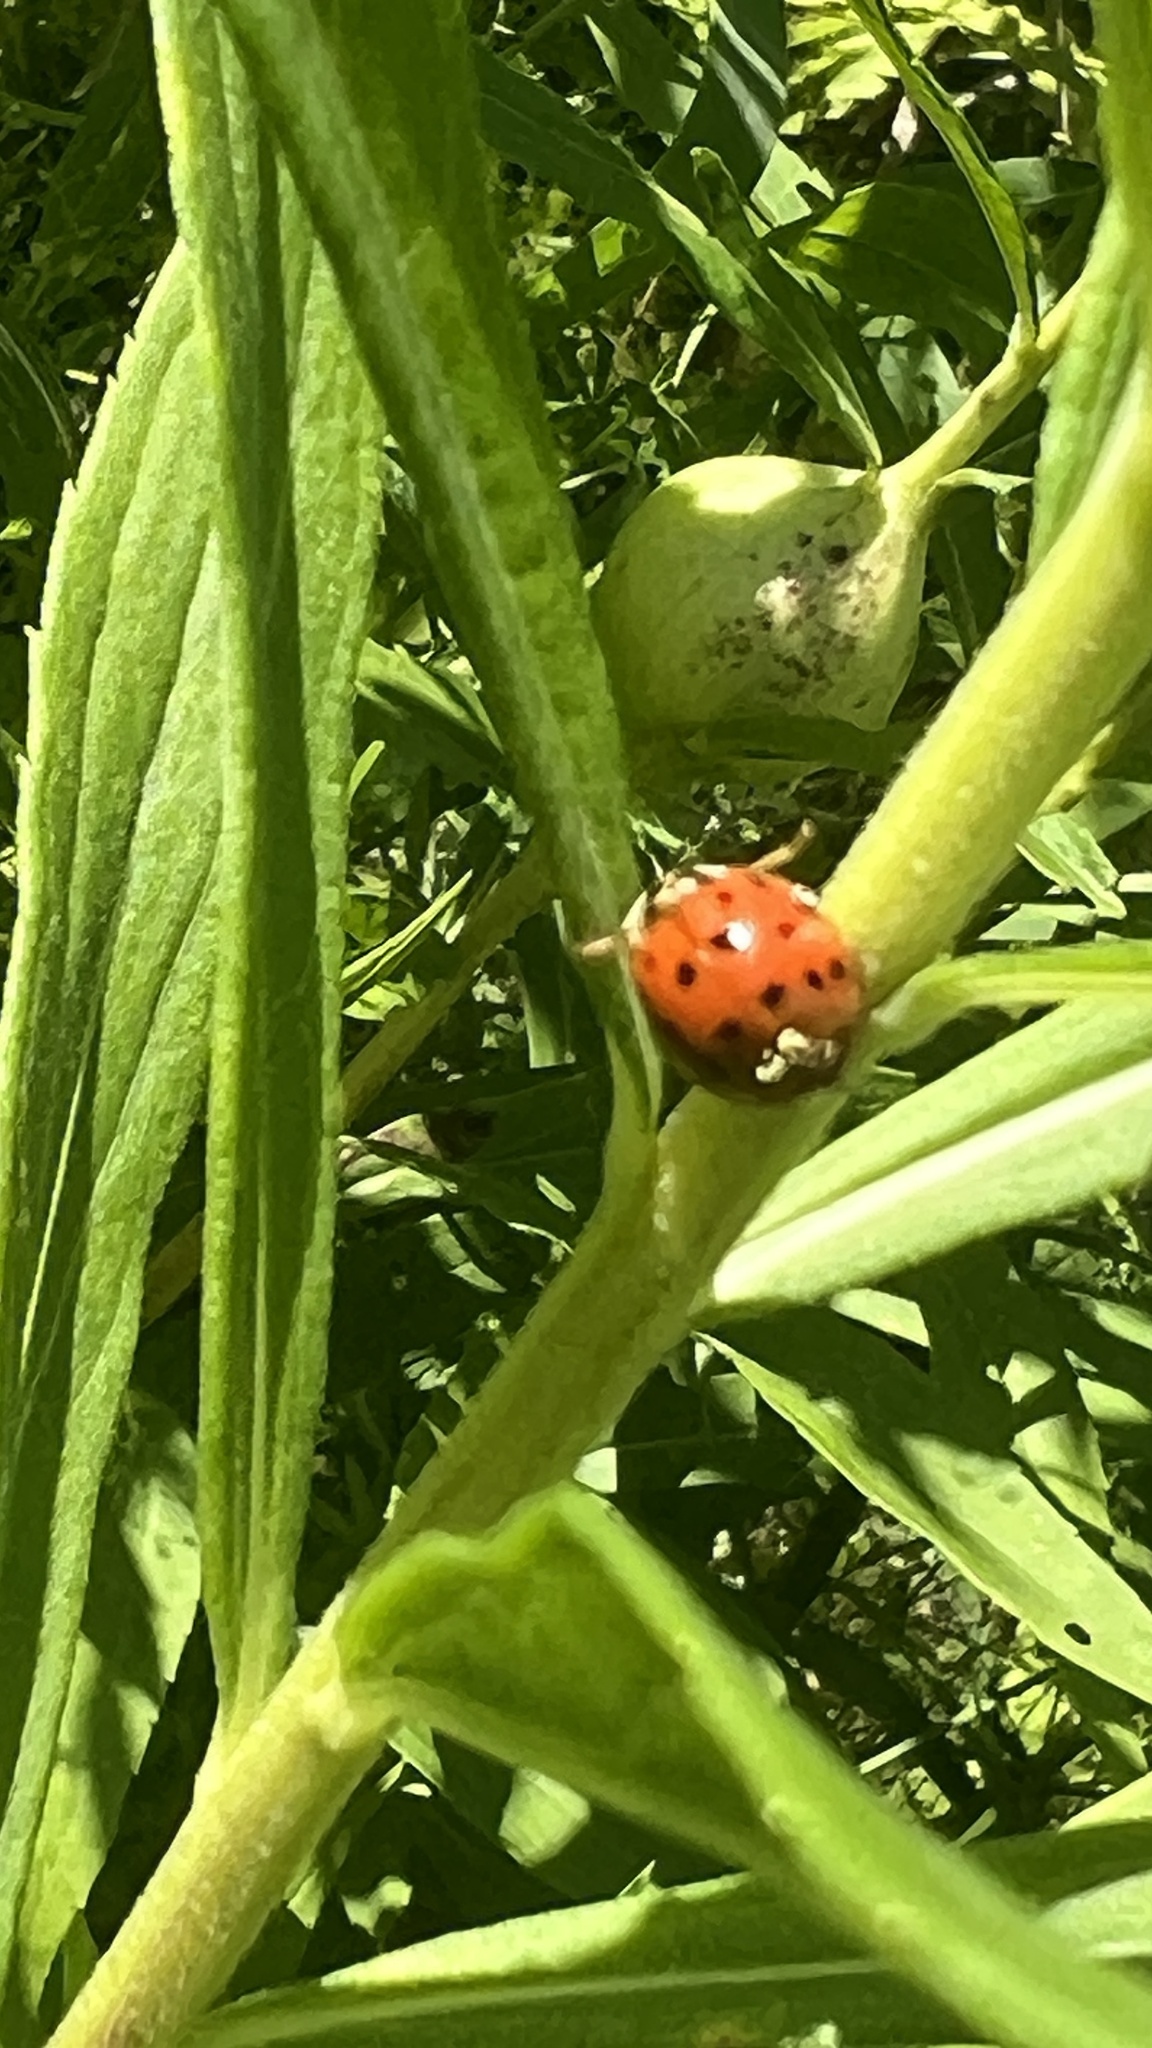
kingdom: Animalia
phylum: Arthropoda
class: Insecta
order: Coleoptera
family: Coccinellidae
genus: Harmonia
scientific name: Harmonia axyridis
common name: Harlequin ladybird
